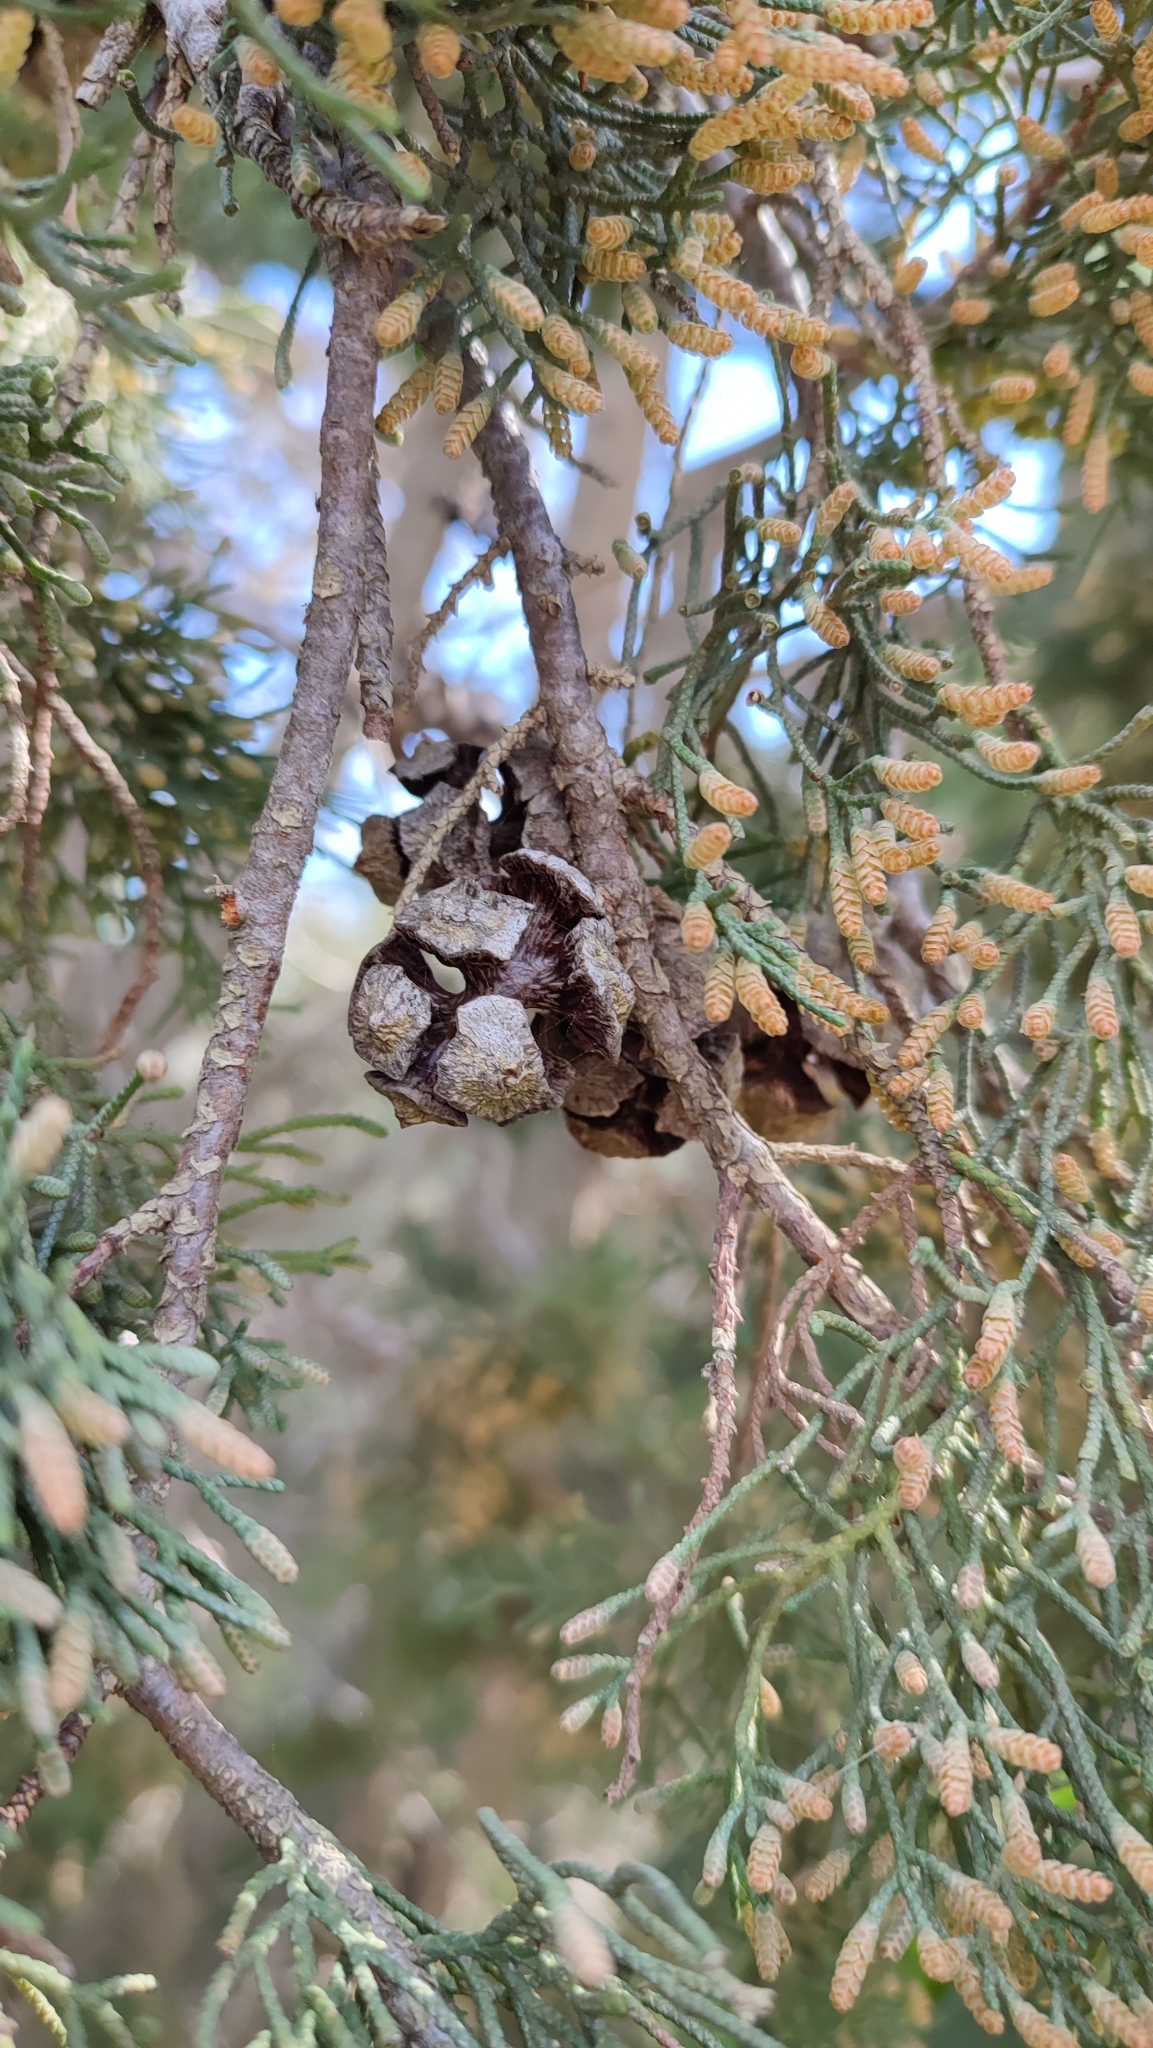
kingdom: Plantae
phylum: Tracheophyta
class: Pinopsida
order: Pinales
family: Cupressaceae
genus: Cupressus
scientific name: Cupressus sempervirens
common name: Italian cypress
